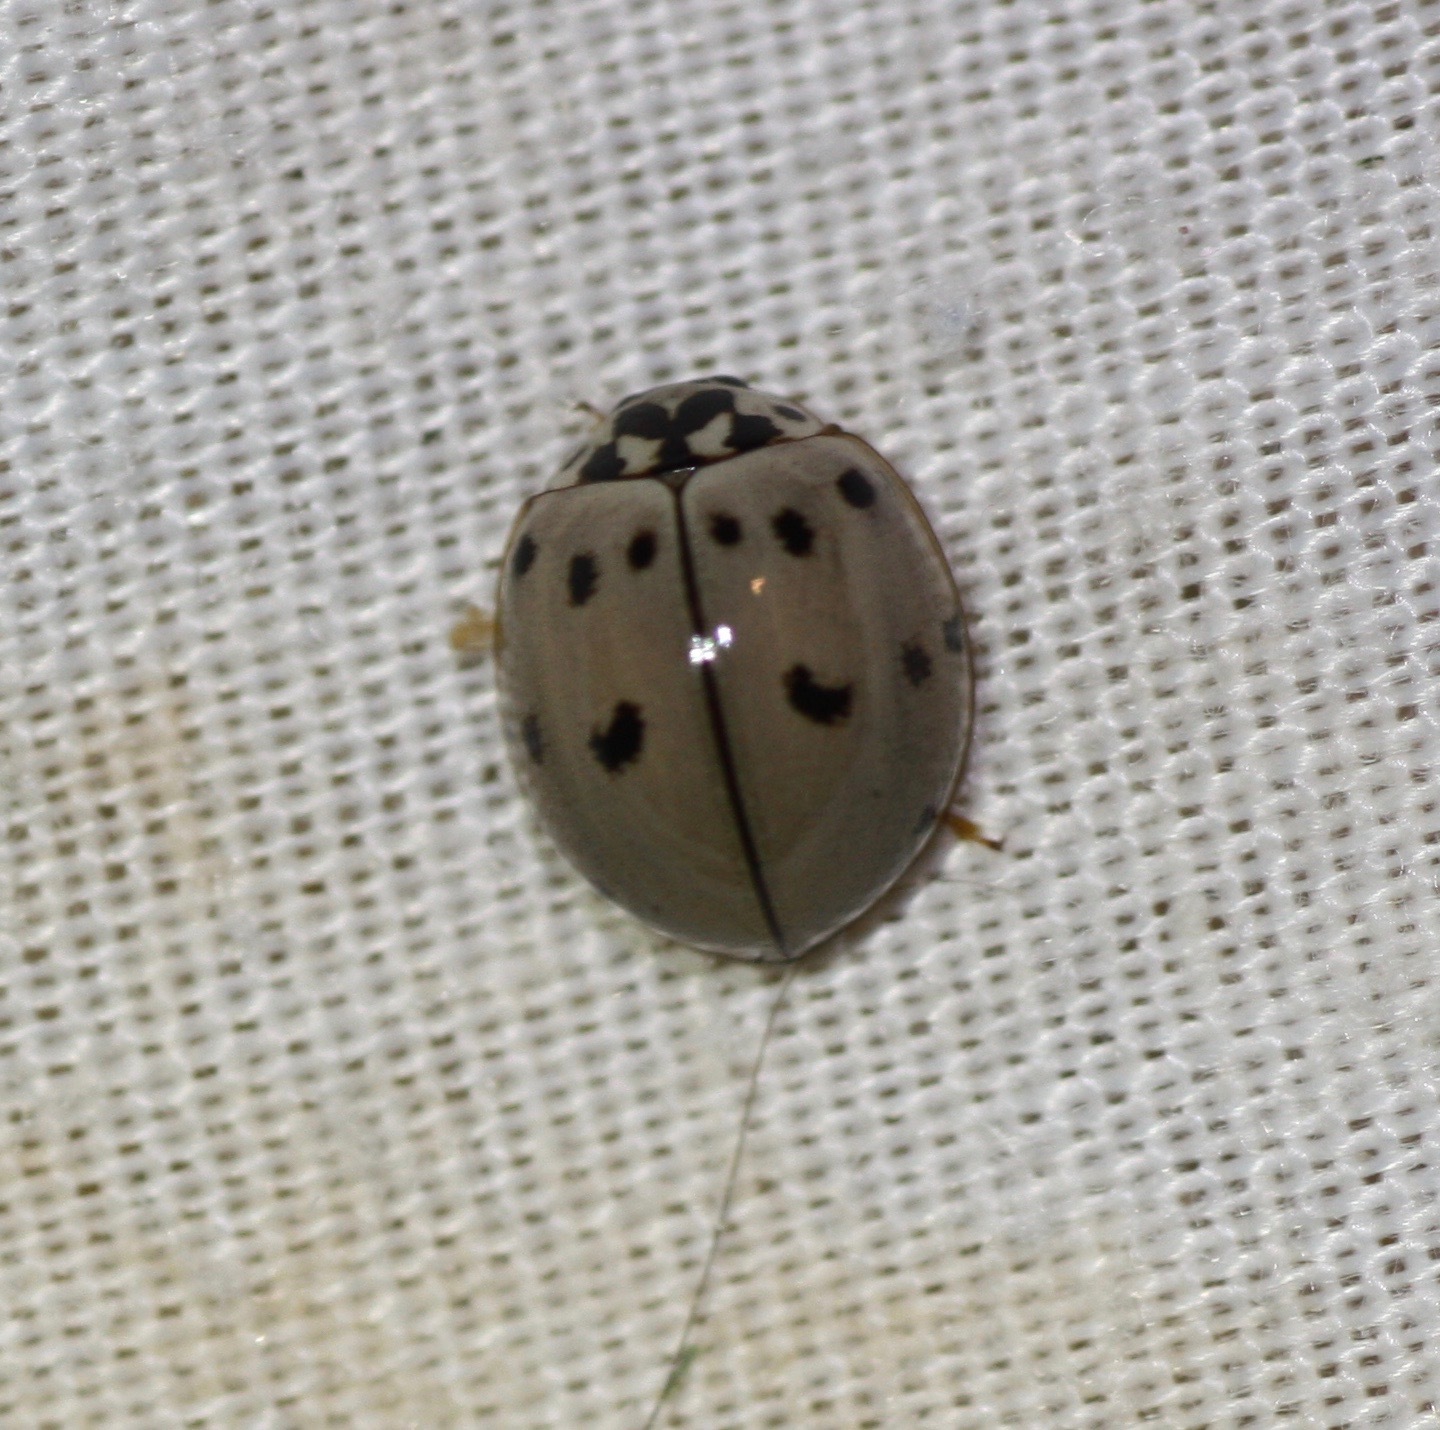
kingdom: Animalia
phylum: Arthropoda
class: Insecta
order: Coleoptera
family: Coccinellidae
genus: Olla
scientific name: Olla v-nigrum
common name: Ashy gray lady beetle
